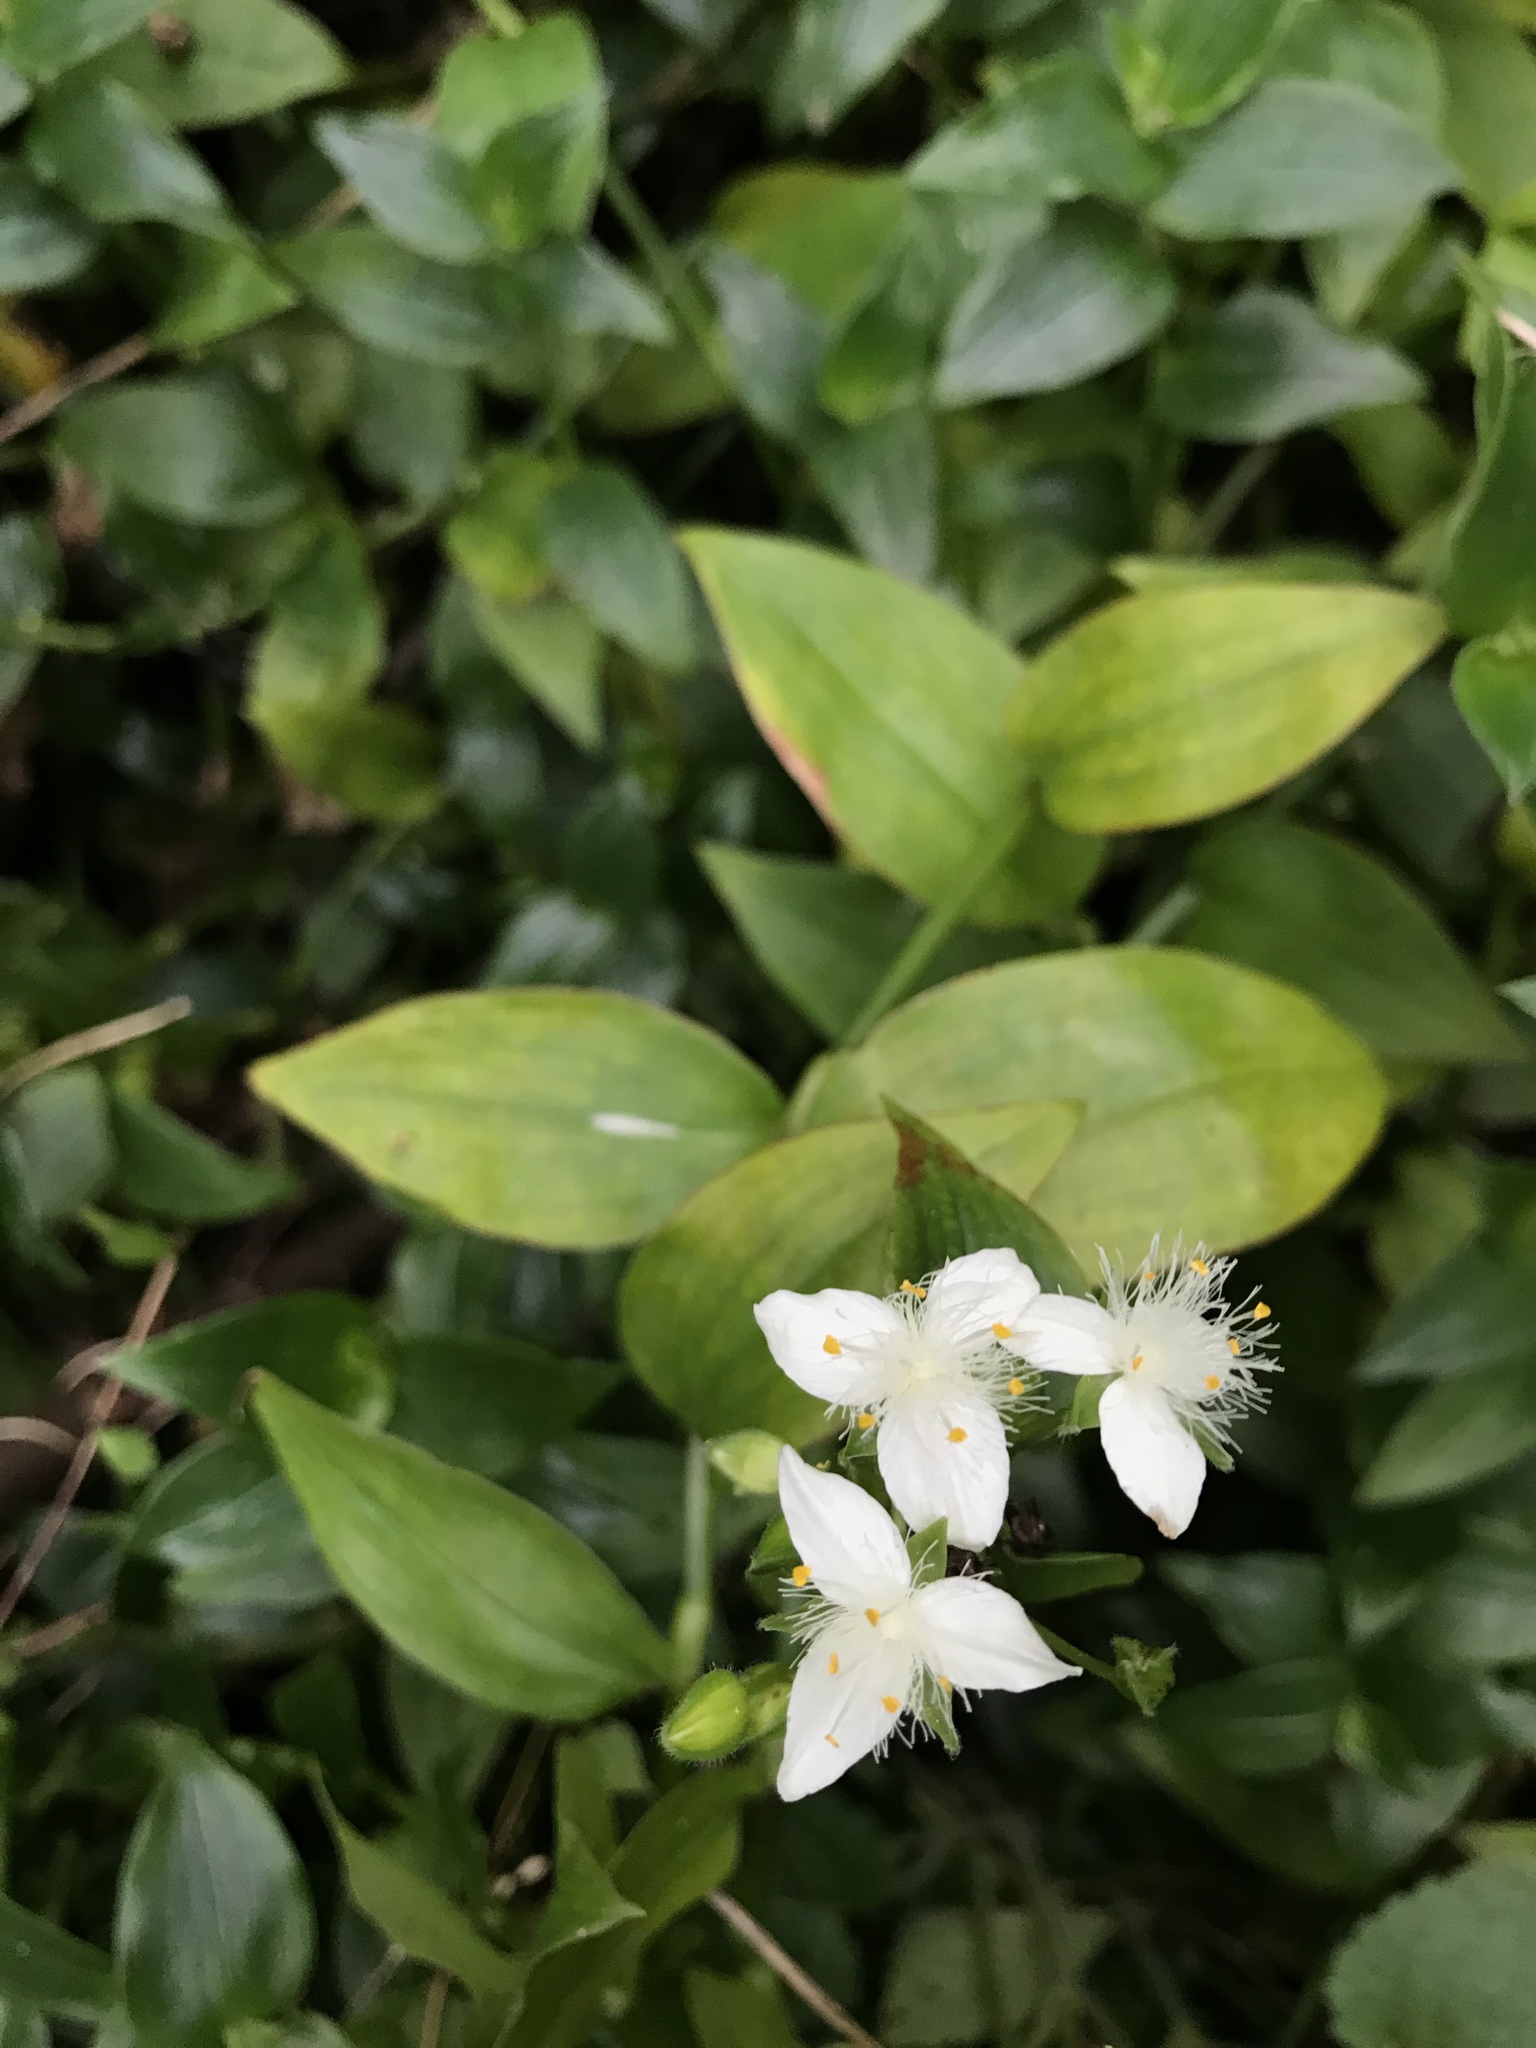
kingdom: Plantae
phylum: Tracheophyta
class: Liliopsida
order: Commelinales
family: Commelinaceae
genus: Tradescantia
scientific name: Tradescantia fluminensis
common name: Wandering-jew
